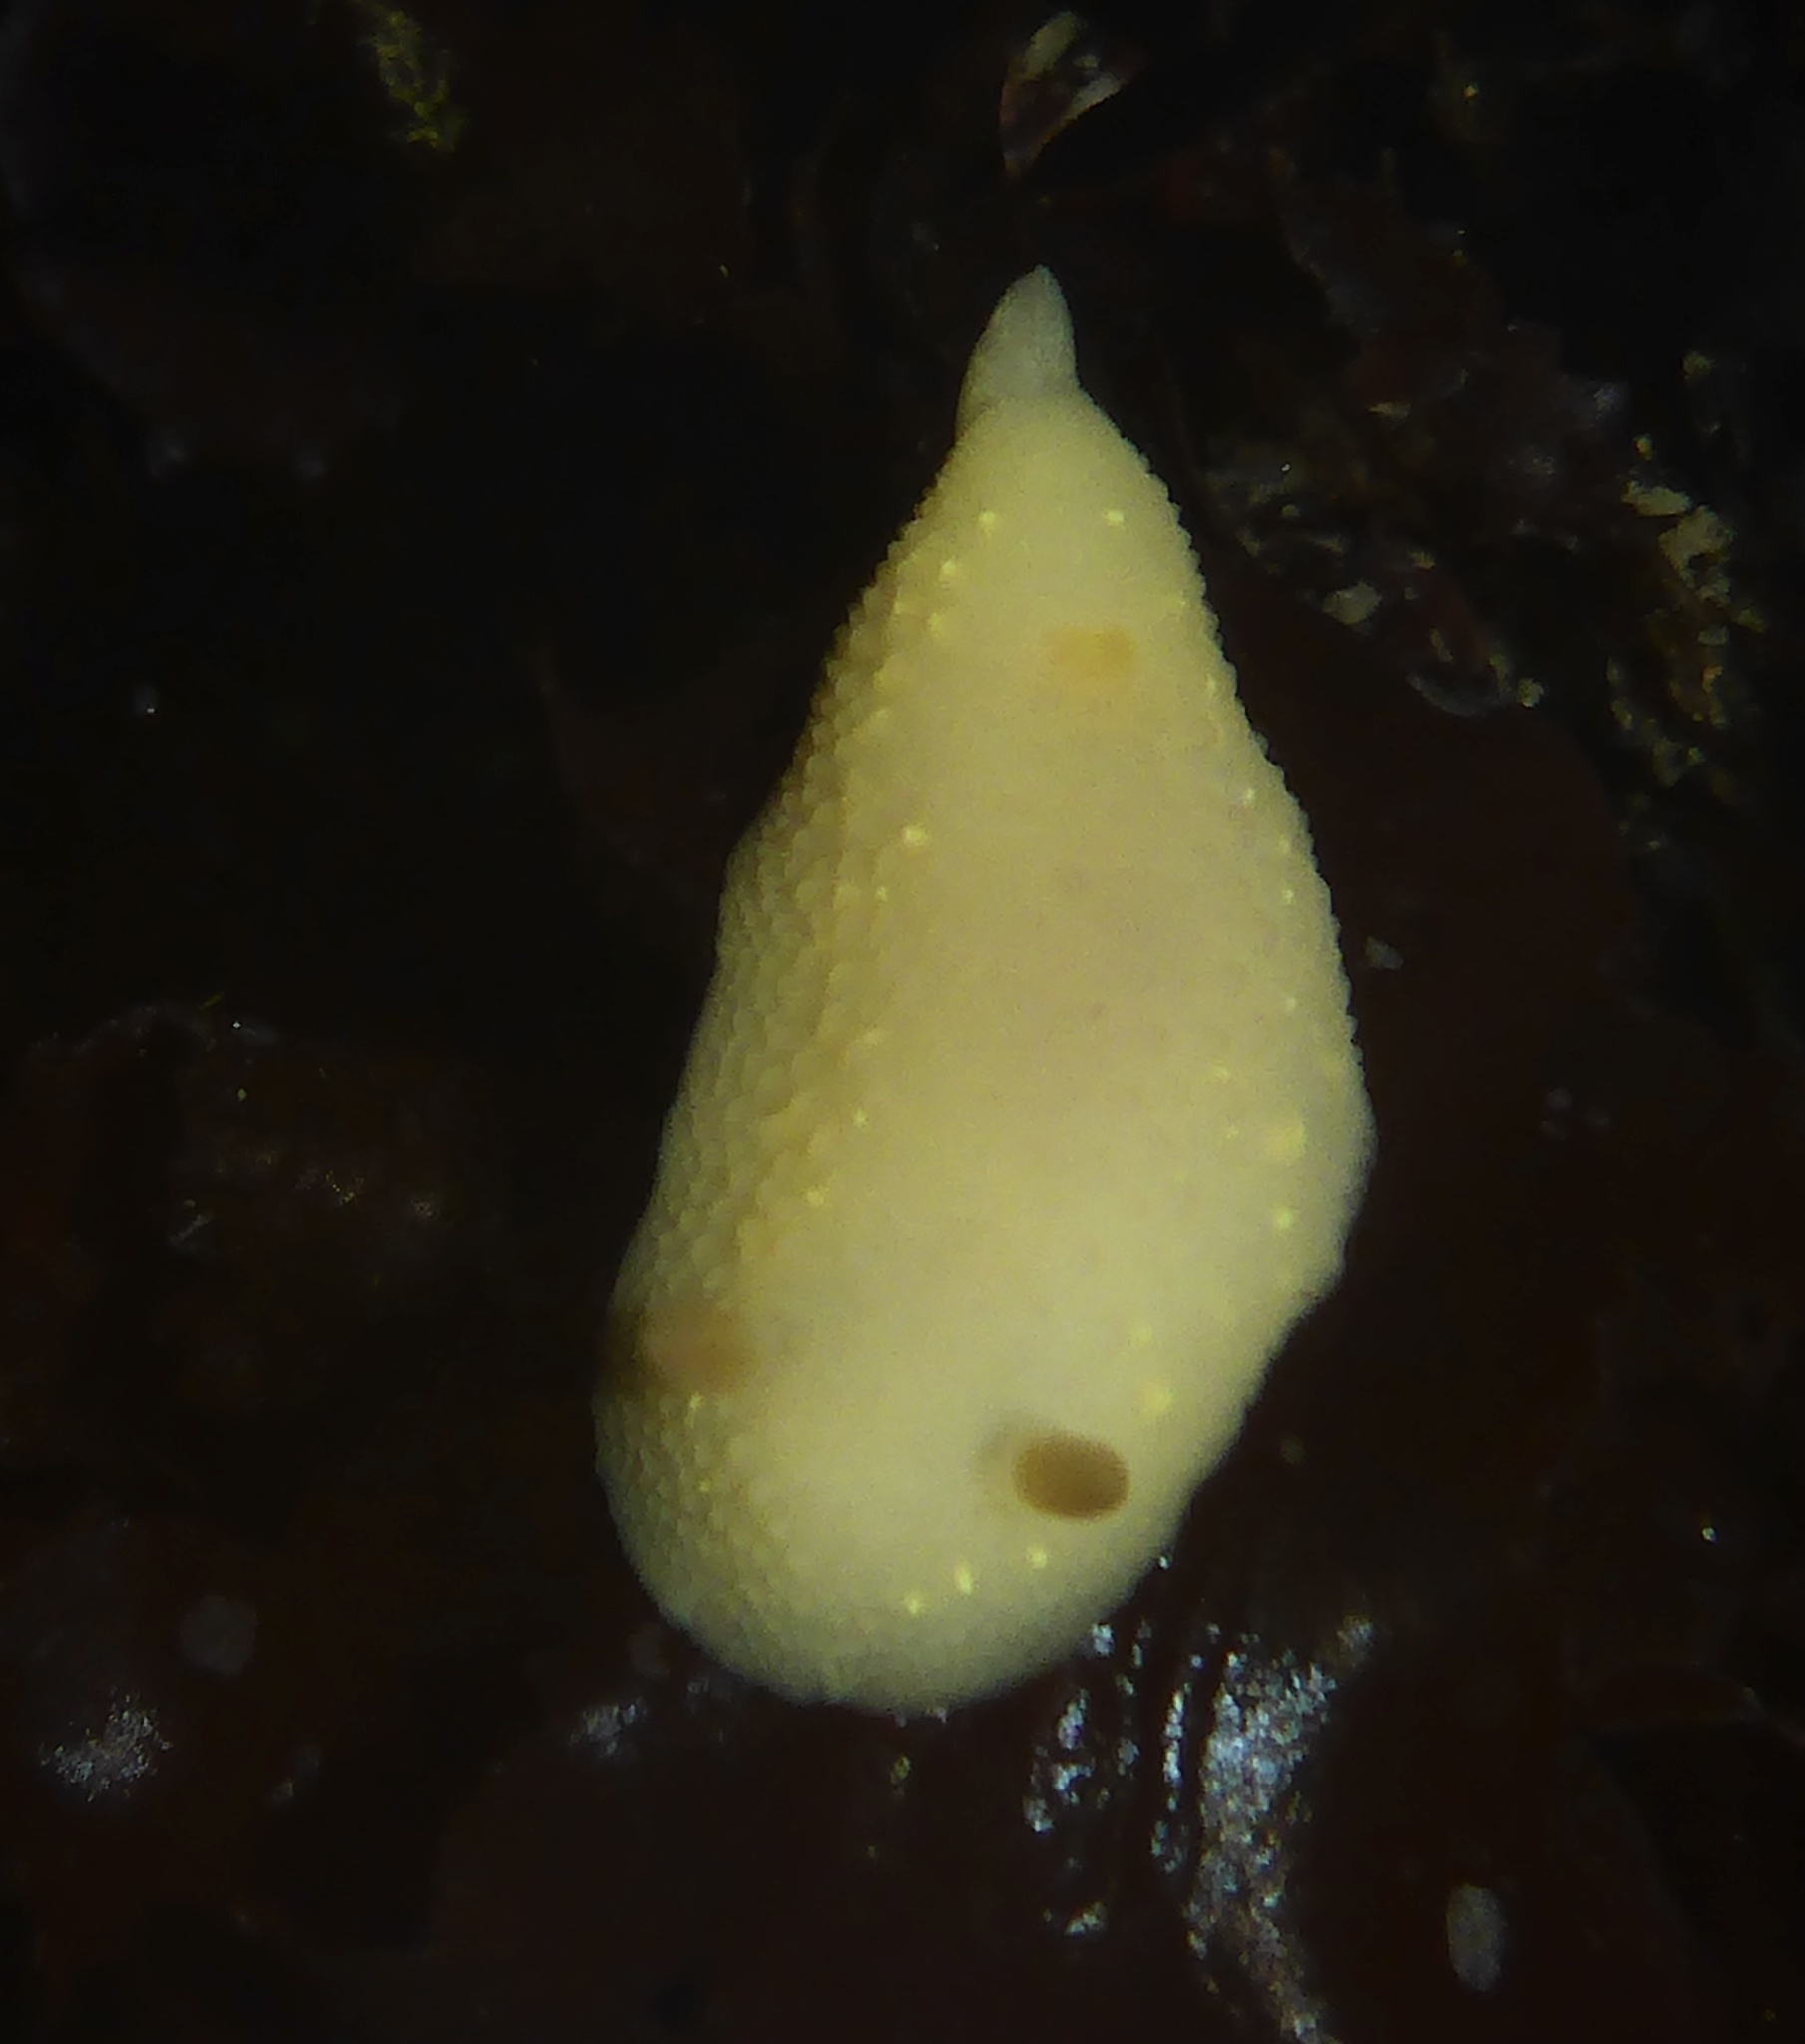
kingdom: Animalia
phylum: Mollusca
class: Gastropoda
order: Nudibranchia
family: Cadlinidae
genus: Cadlina
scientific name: Cadlina modesta
